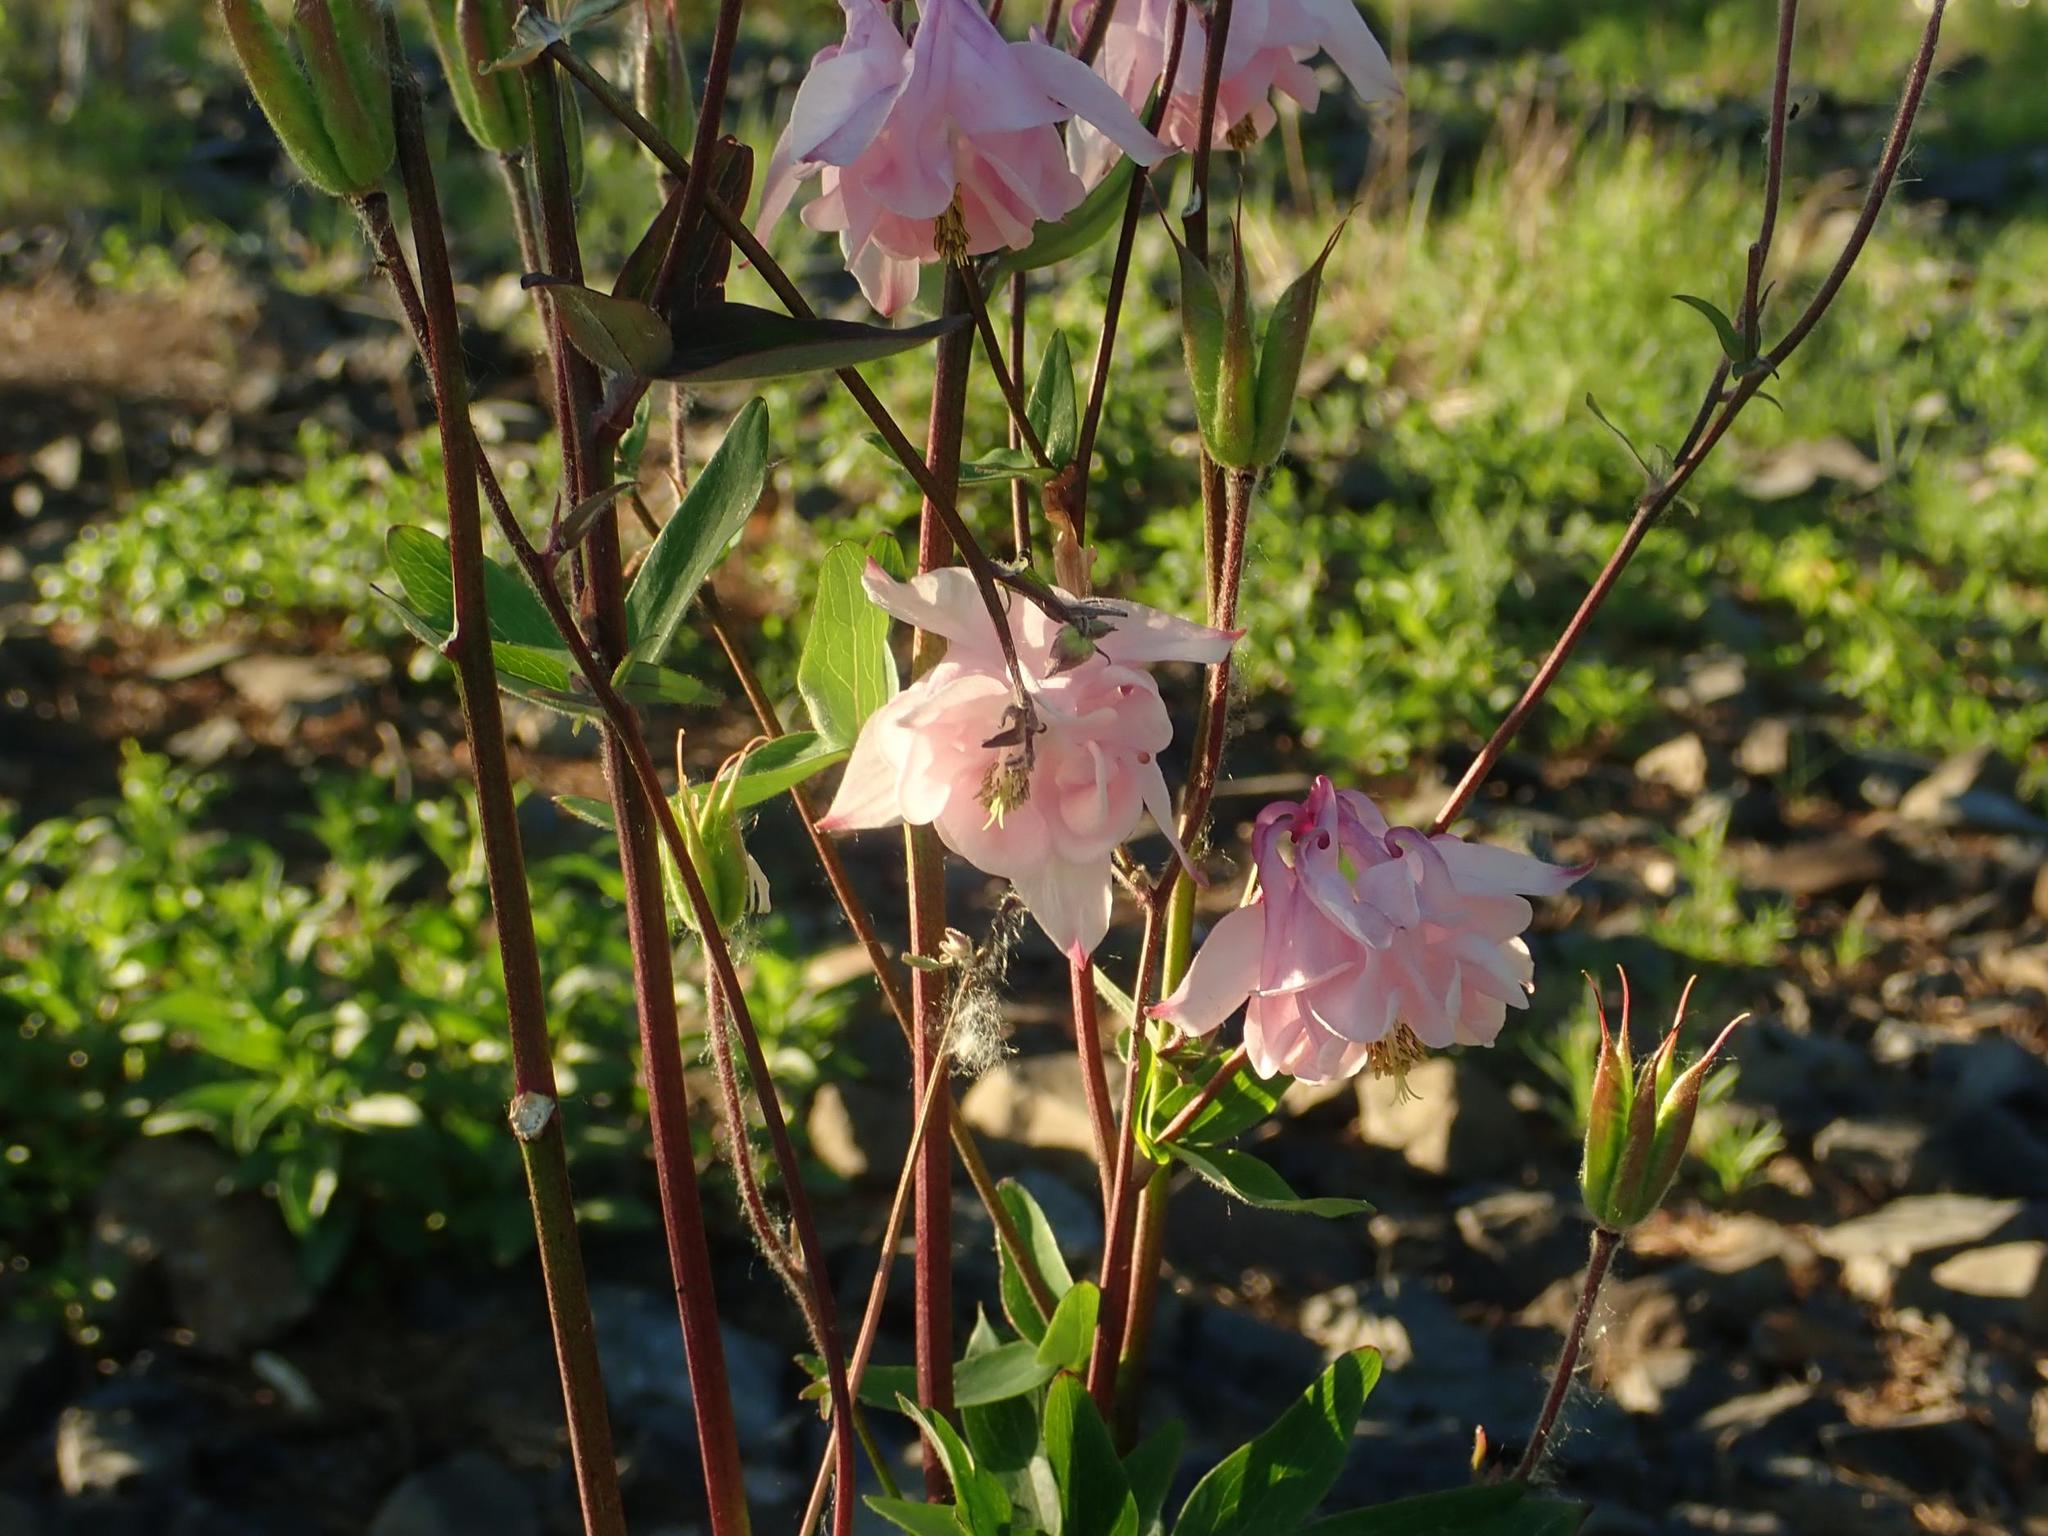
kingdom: Plantae
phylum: Tracheophyta
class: Magnoliopsida
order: Ranunculales
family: Ranunculaceae
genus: Aquilegia
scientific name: Aquilegia vulgaris
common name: Columbine
